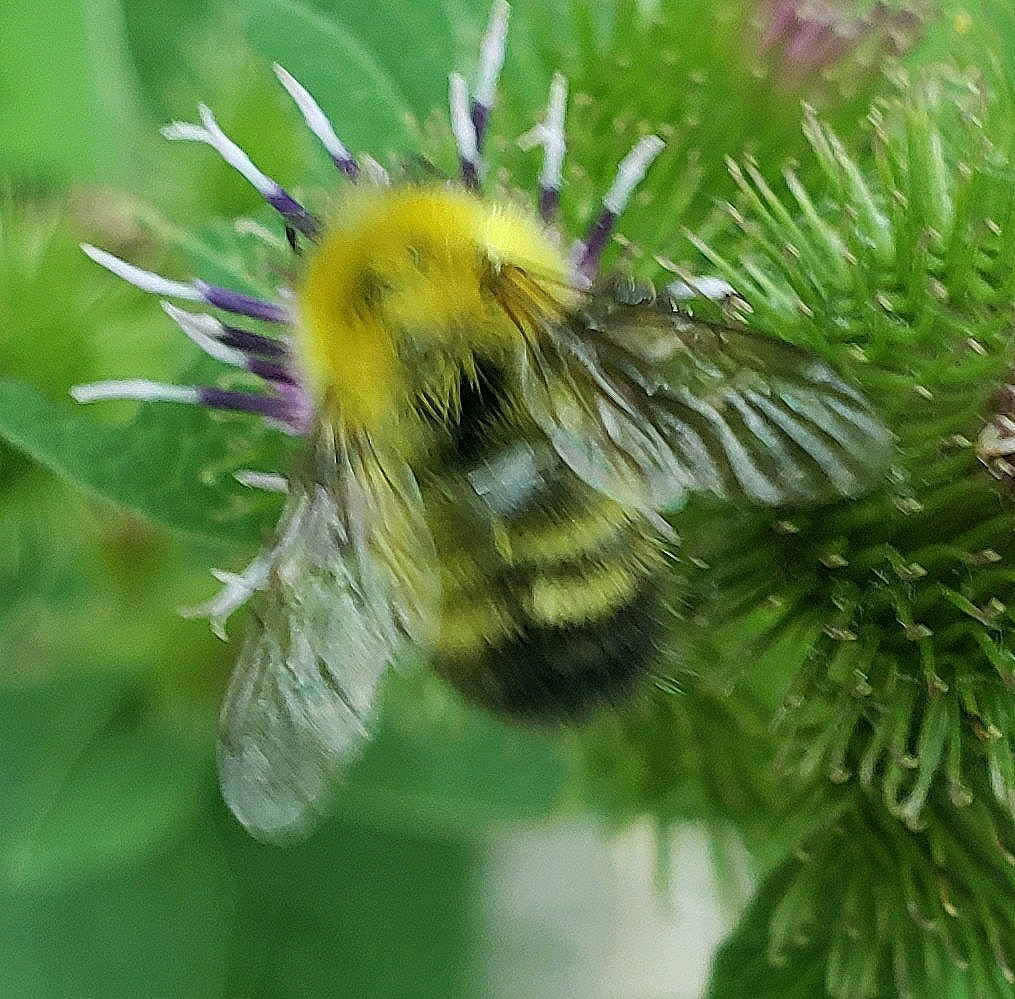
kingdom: Animalia
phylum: Arthropoda
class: Insecta
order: Hymenoptera
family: Apidae
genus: Bombus
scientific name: Bombus perplexus
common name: Confusing bumble bee
